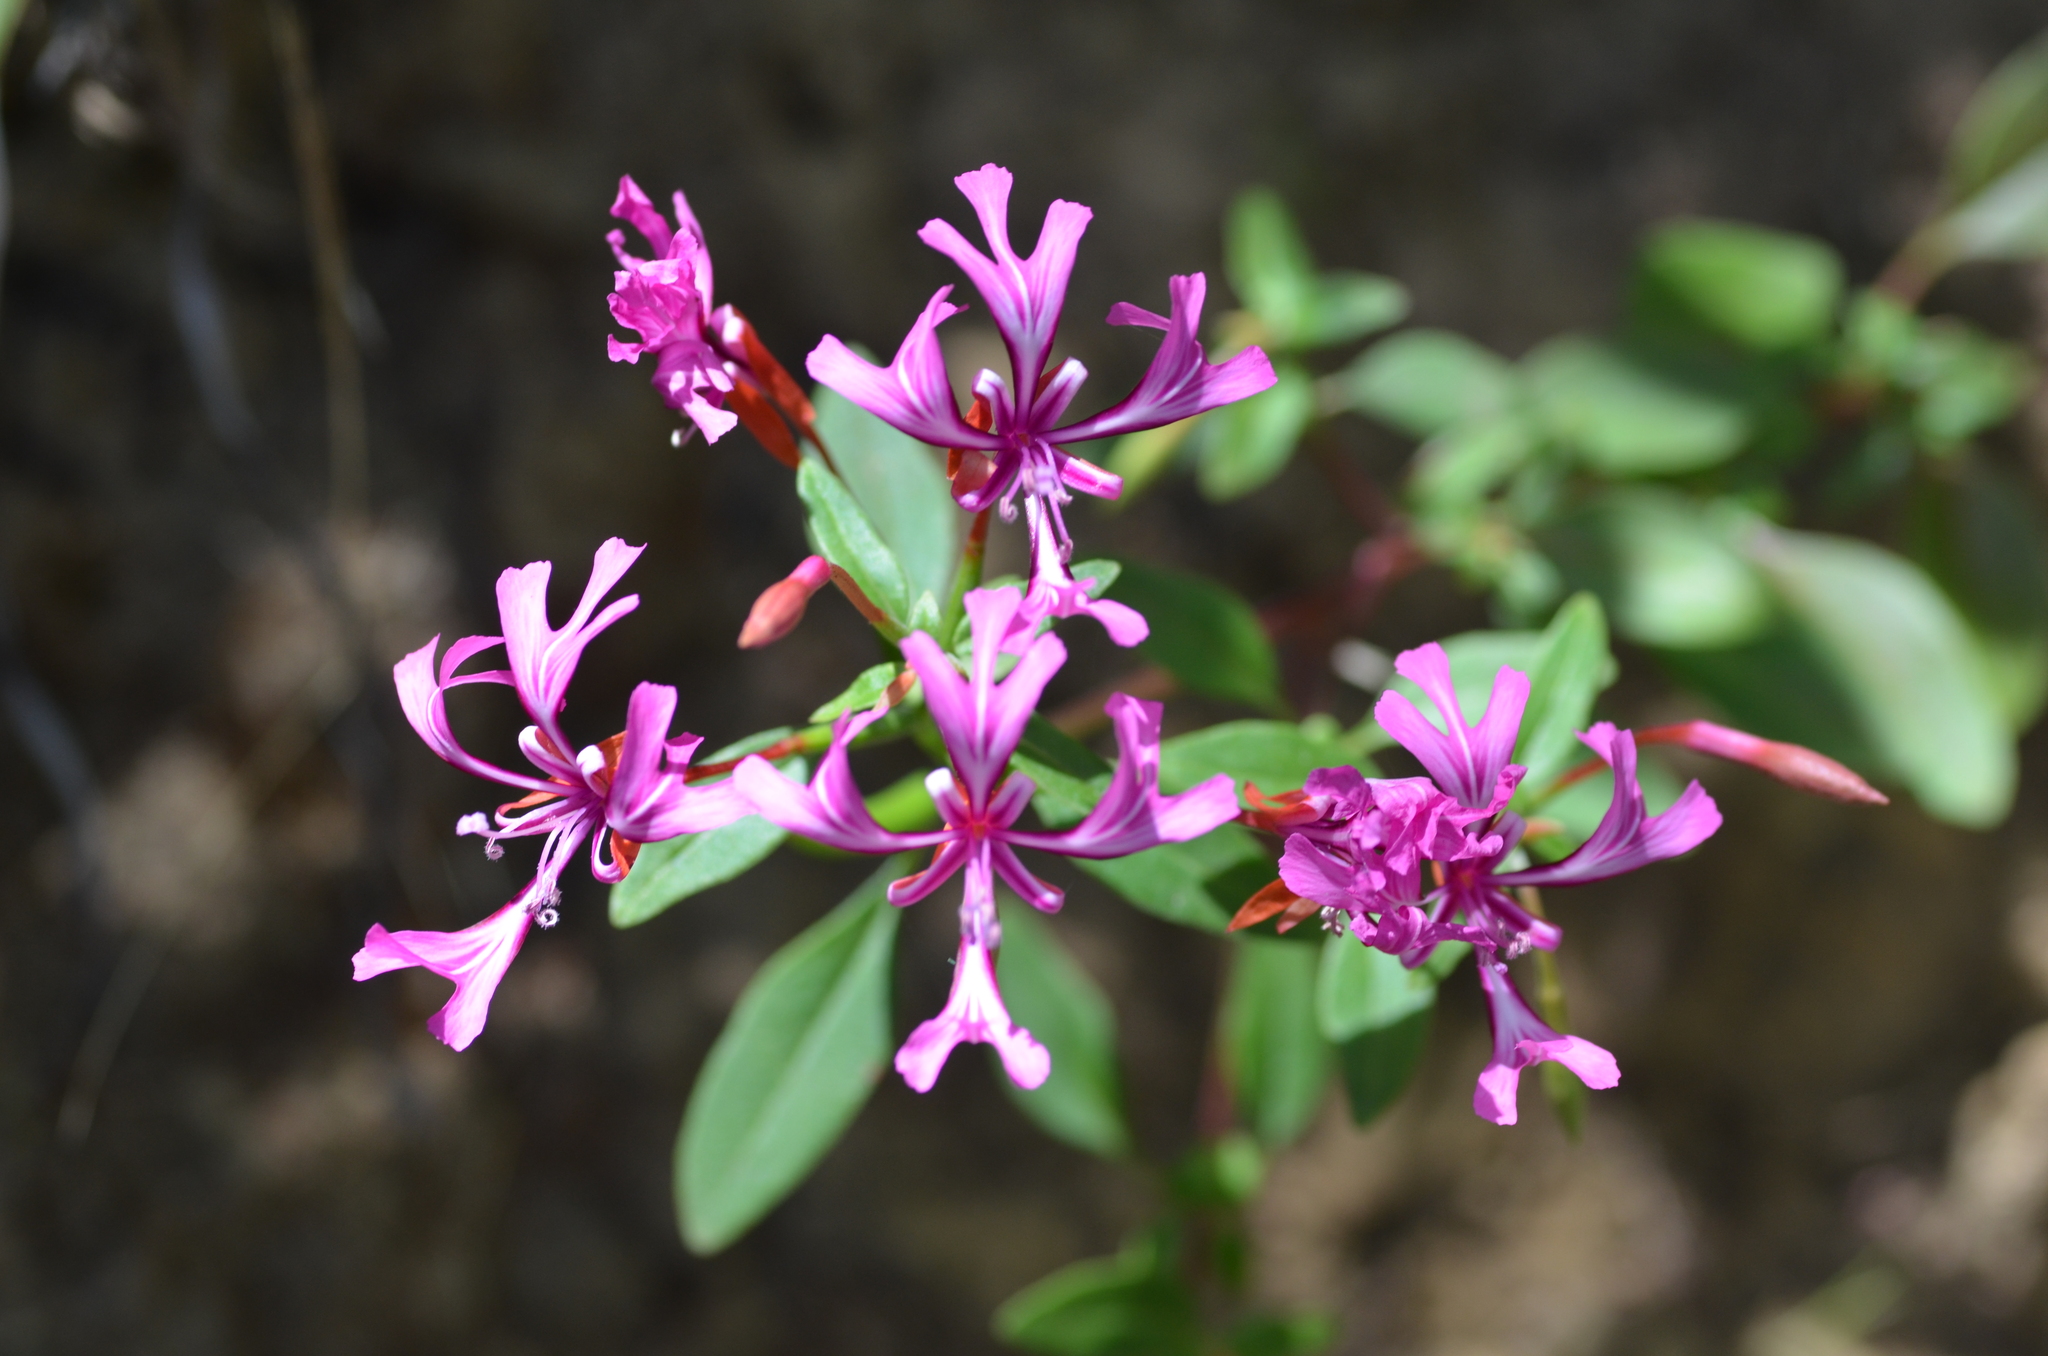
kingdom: Plantae
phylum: Tracheophyta
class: Magnoliopsida
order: Myrtales
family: Onagraceae
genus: Clarkia
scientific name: Clarkia concinna
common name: Red-ribbons
